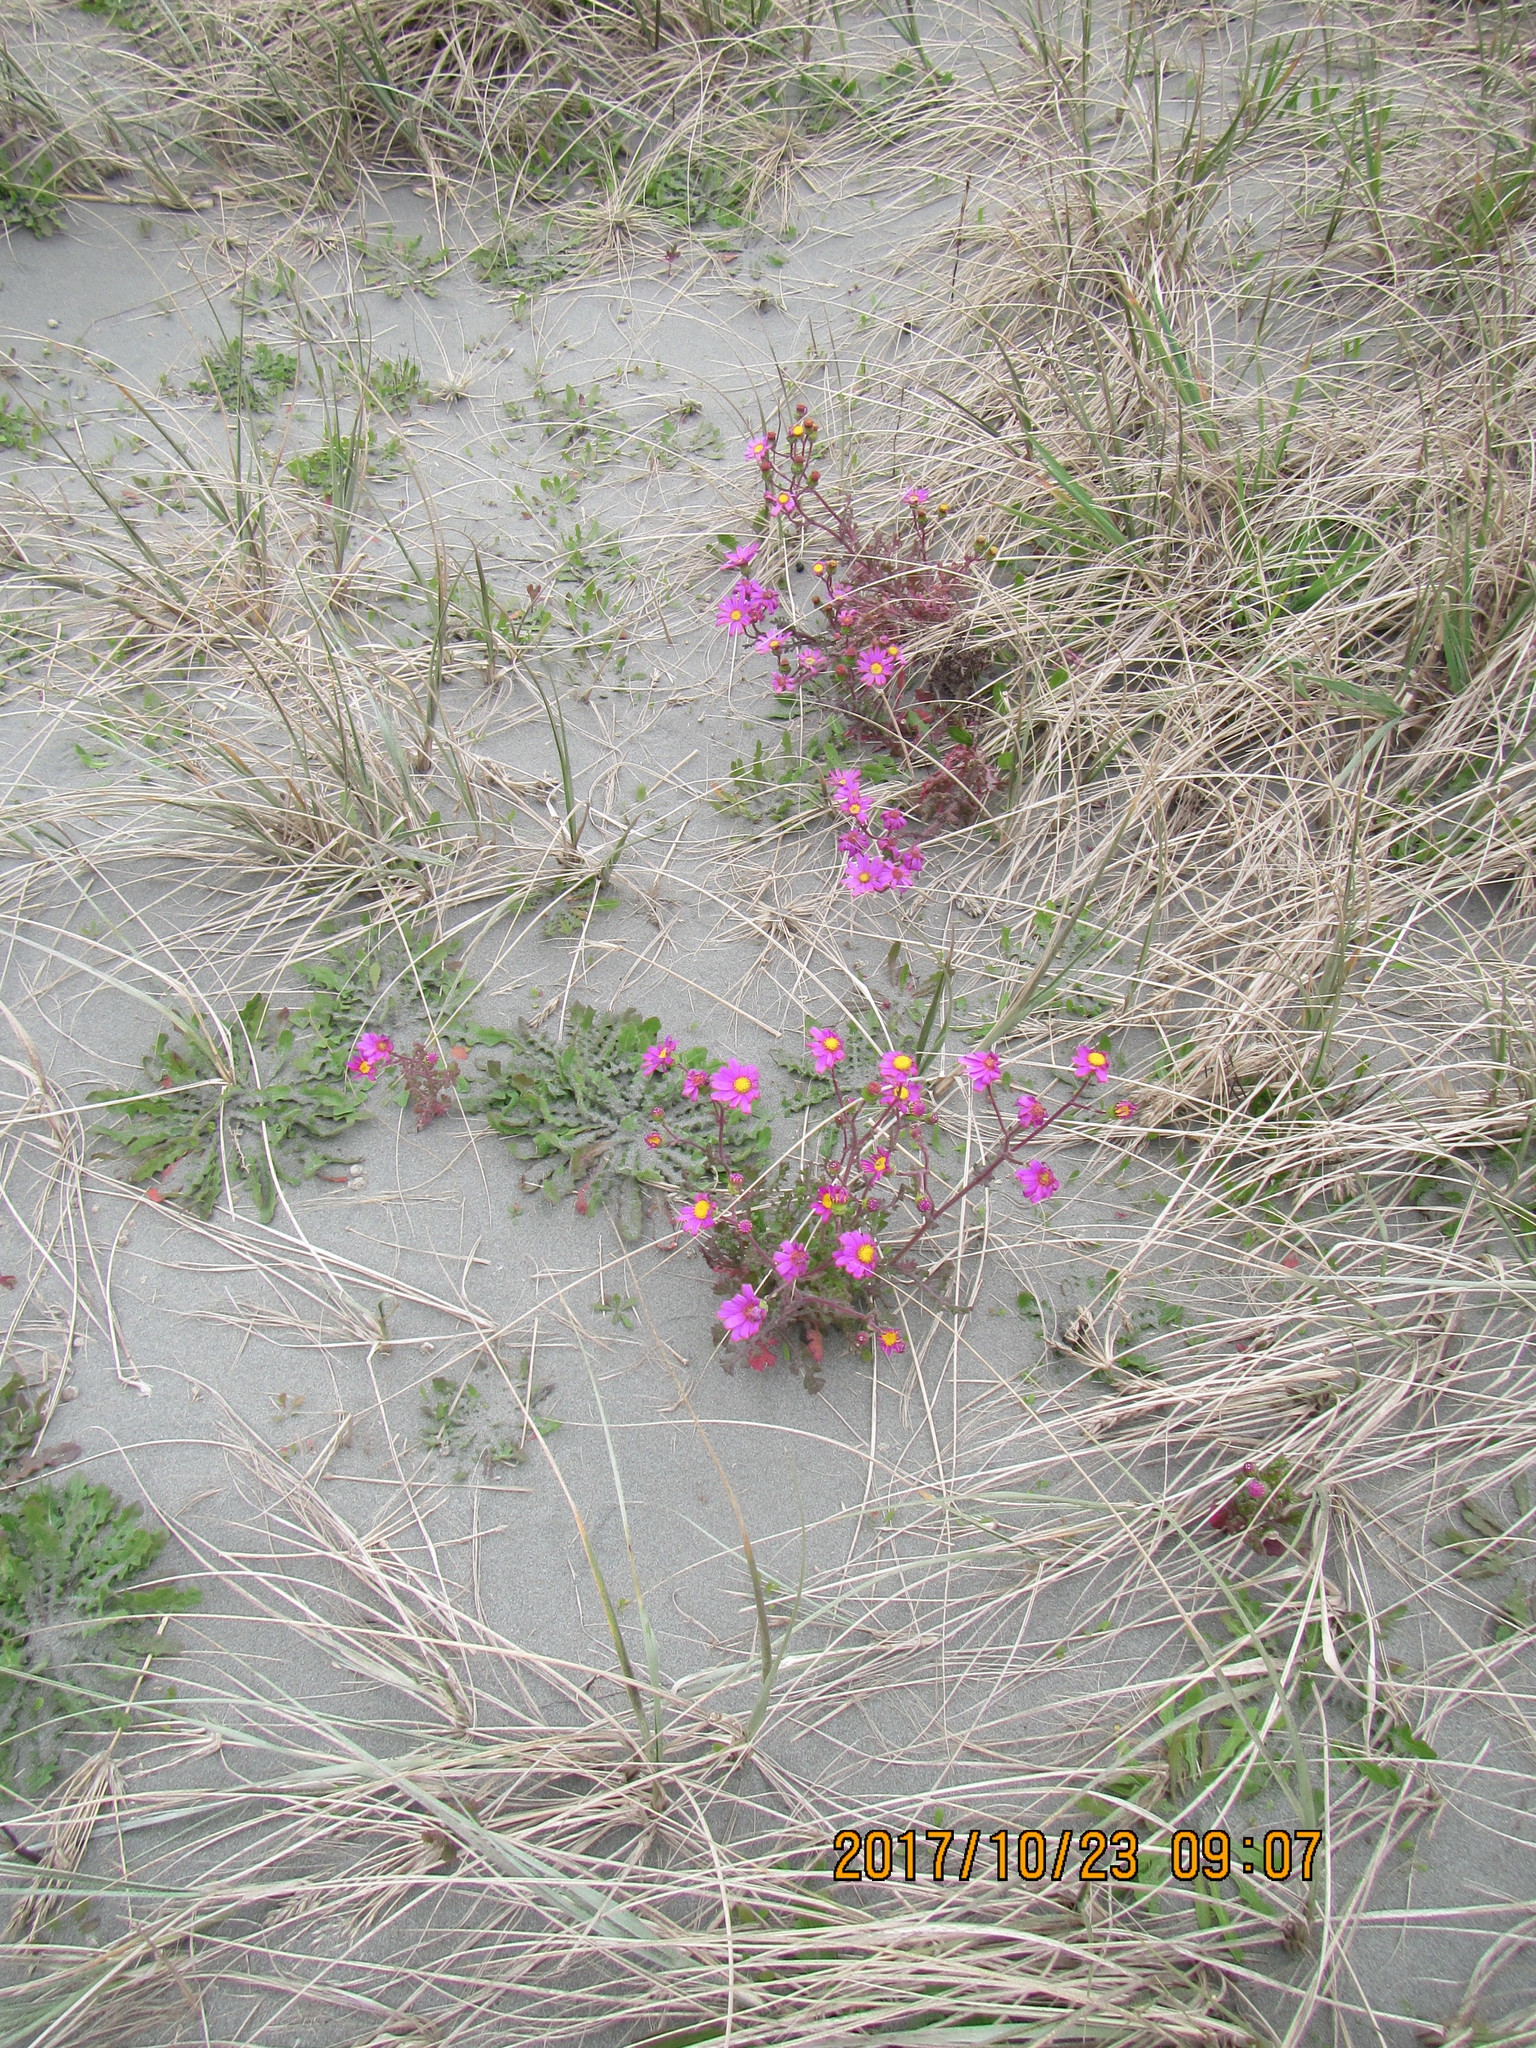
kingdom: Plantae
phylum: Tracheophyta
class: Magnoliopsida
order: Asterales
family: Asteraceae
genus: Senecio
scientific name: Senecio elegans
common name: Purple groundsel
